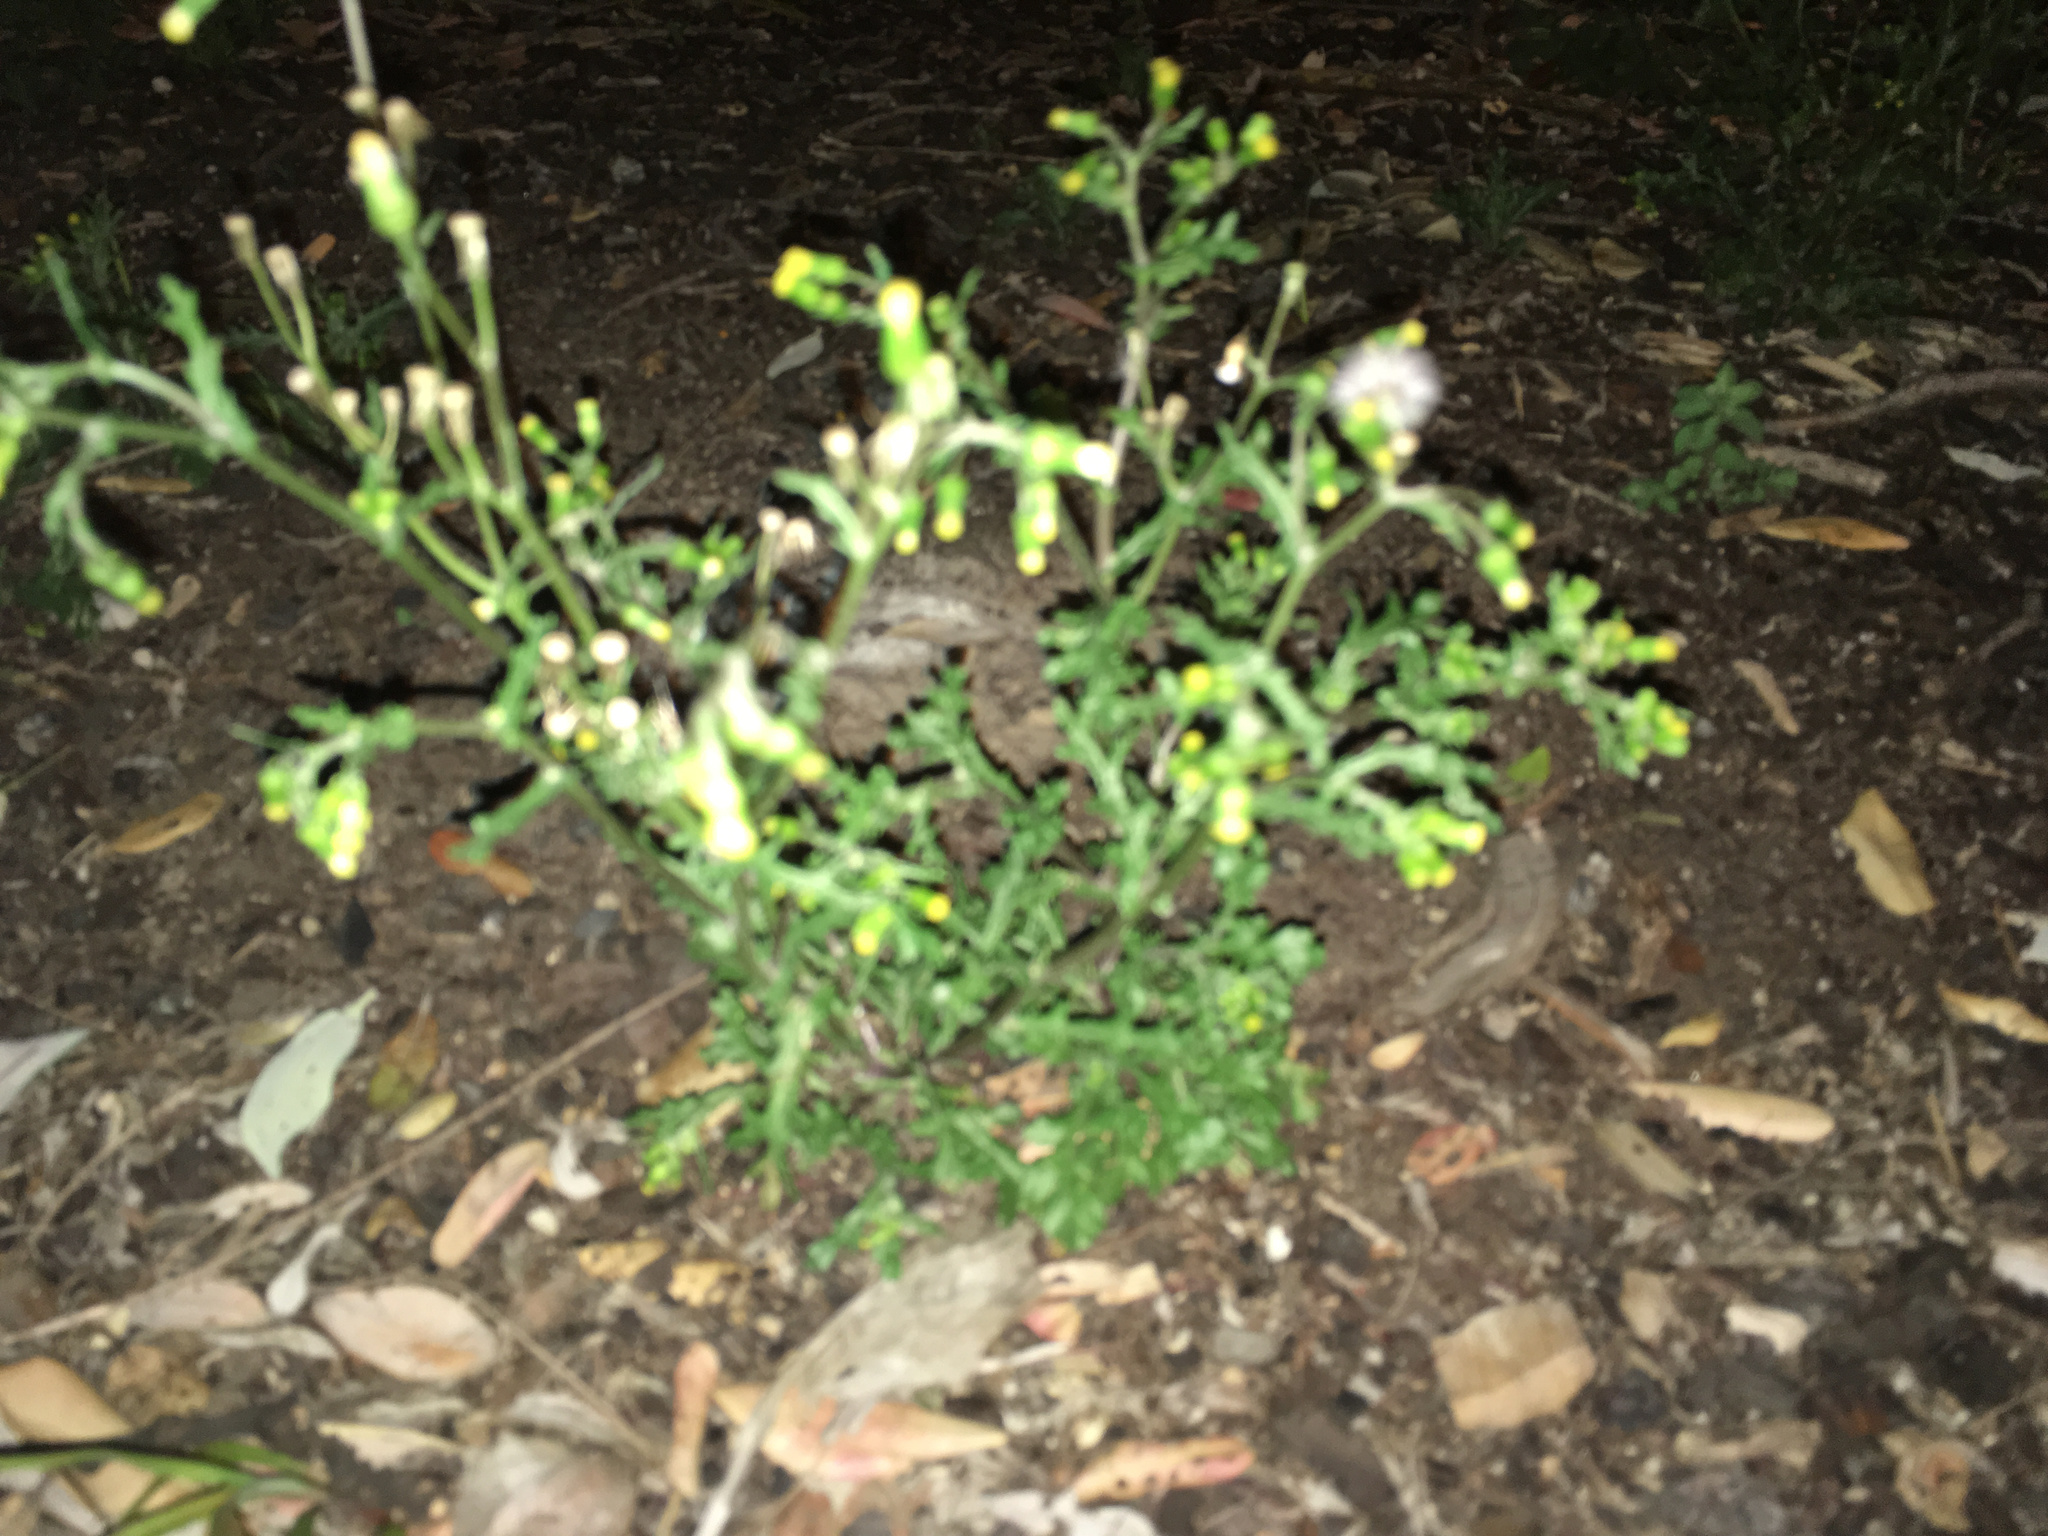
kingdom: Plantae
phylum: Tracheophyta
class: Magnoliopsida
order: Asterales
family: Asteraceae
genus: Senecio
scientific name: Senecio vulgaris
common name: Old-man-in-the-spring
